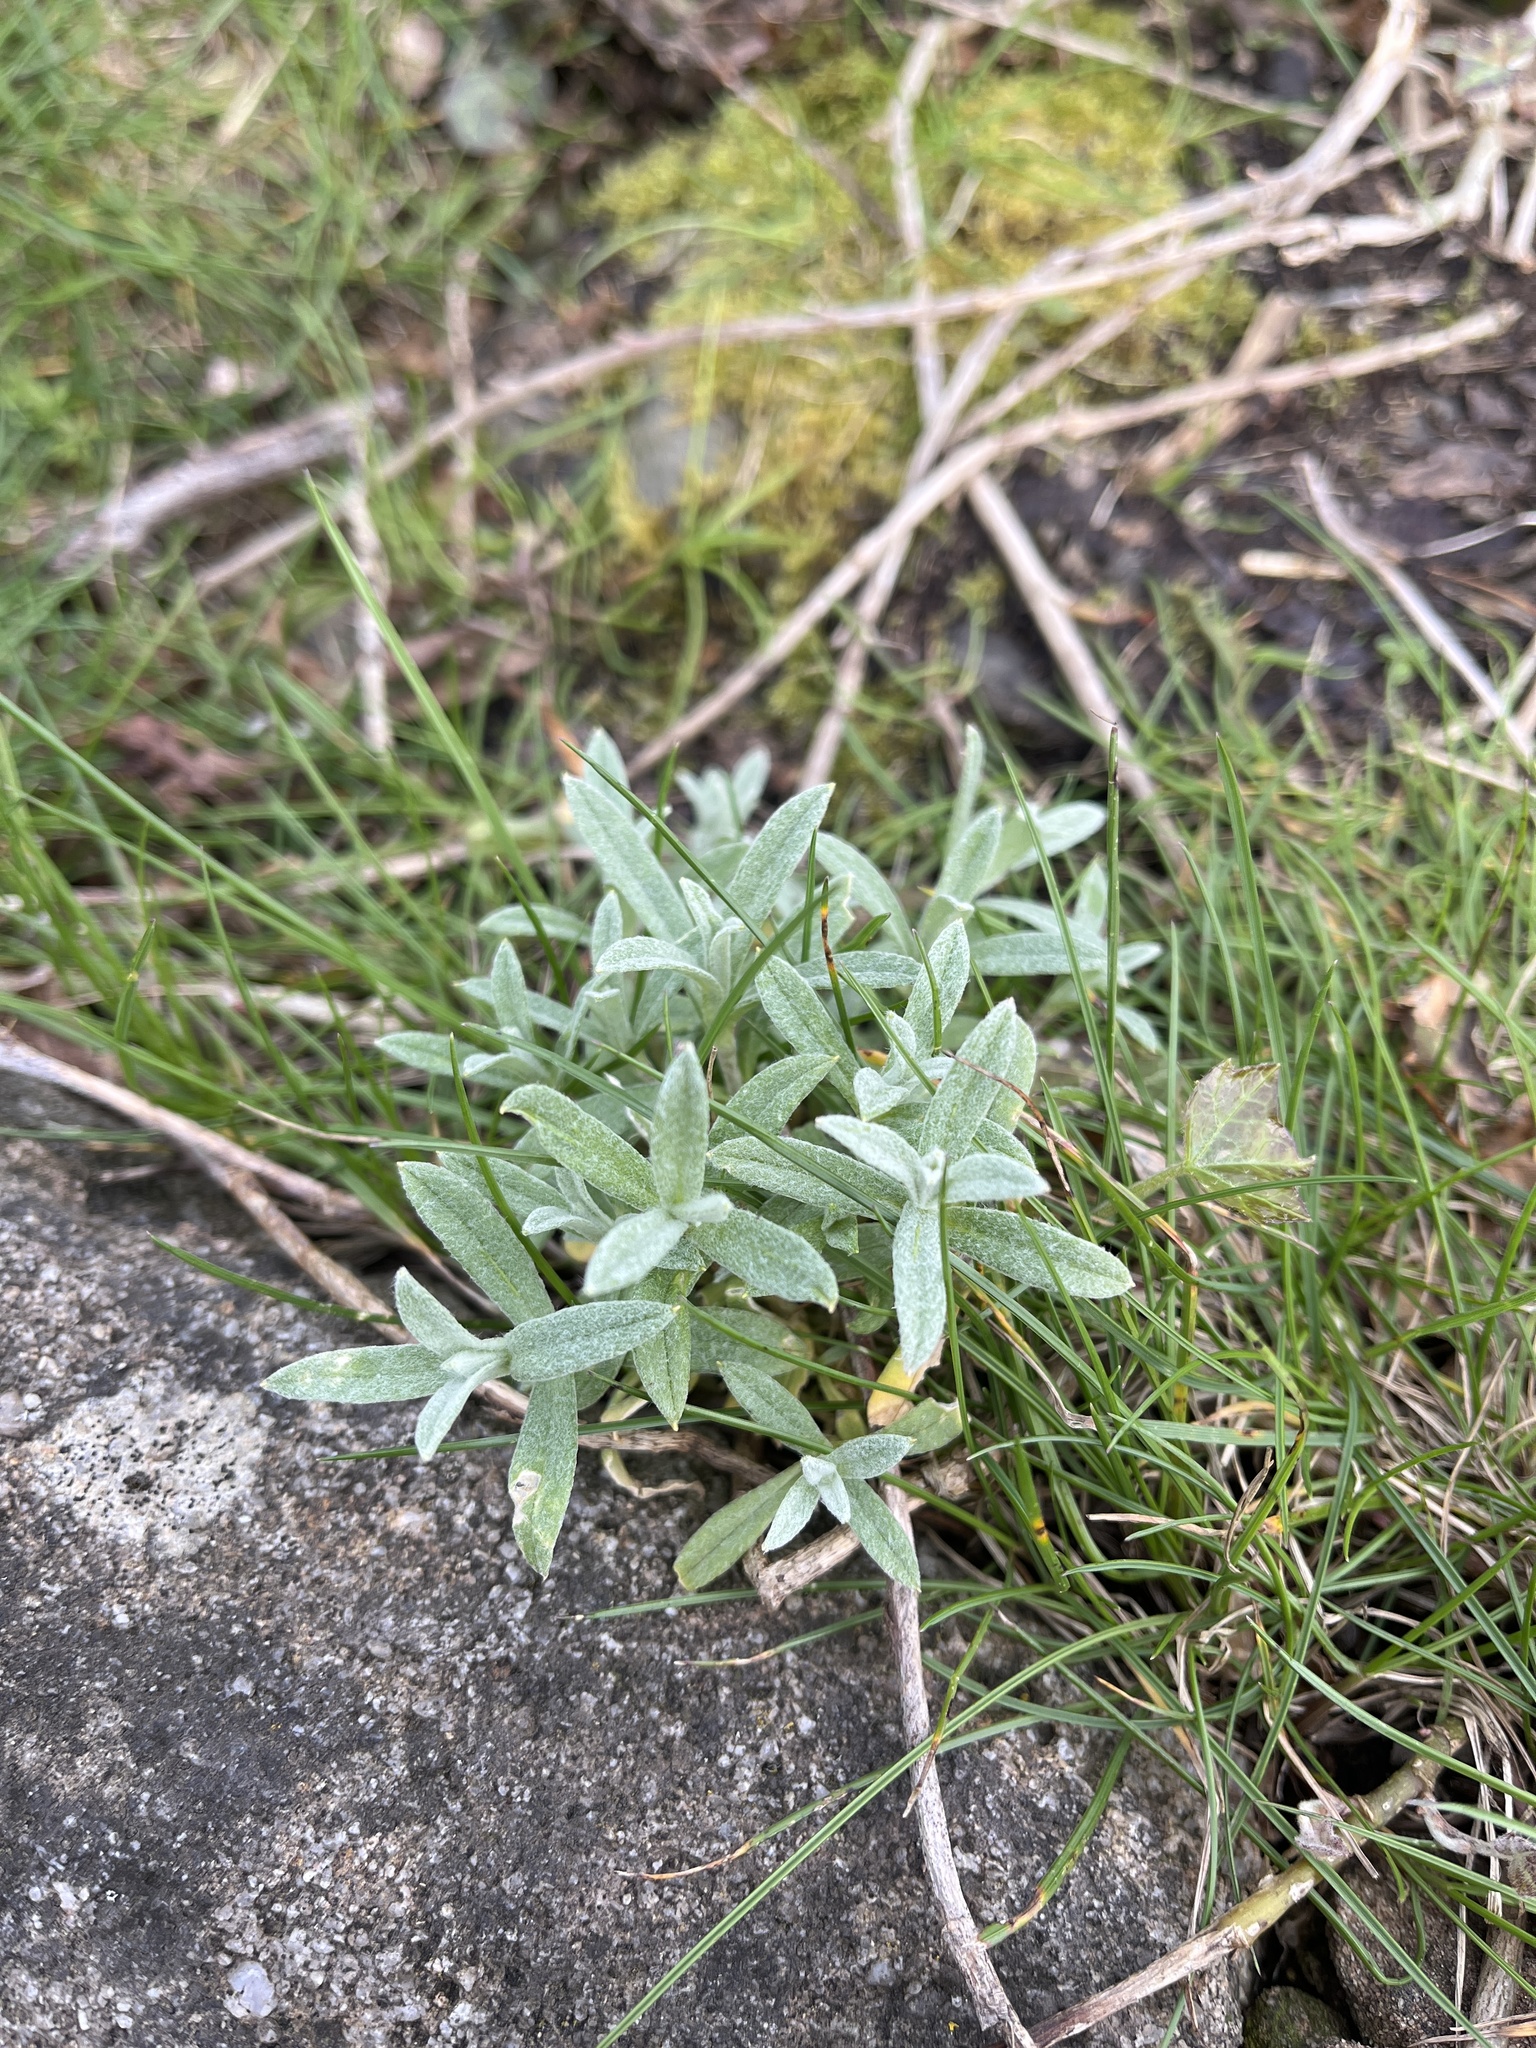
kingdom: Plantae
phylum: Tracheophyta
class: Magnoliopsida
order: Caryophyllales
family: Caryophyllaceae
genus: Cerastium
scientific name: Cerastium tomentosum
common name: Snow-in-summer
